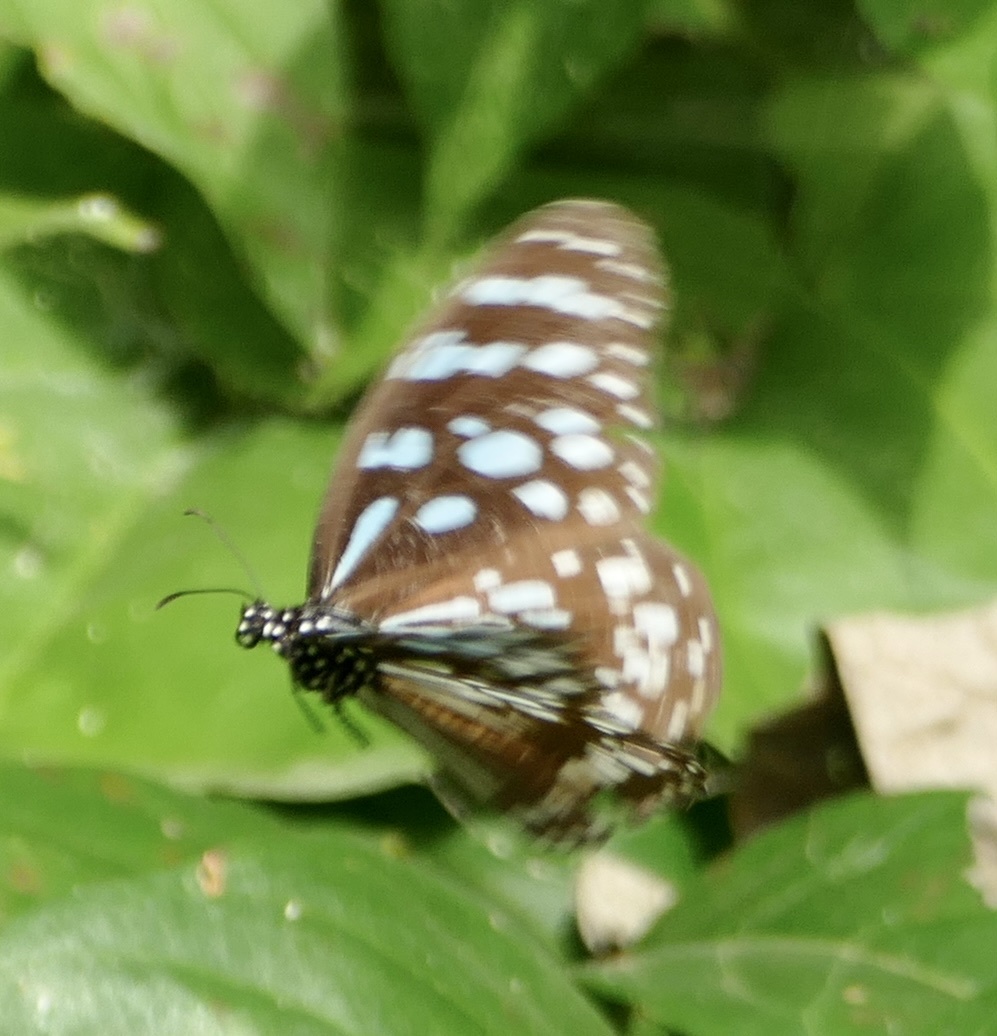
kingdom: Animalia
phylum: Arthropoda
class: Insecta
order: Lepidoptera
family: Nymphalidae
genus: Tirumala
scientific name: Tirumala petiverana
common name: Blue monarch
